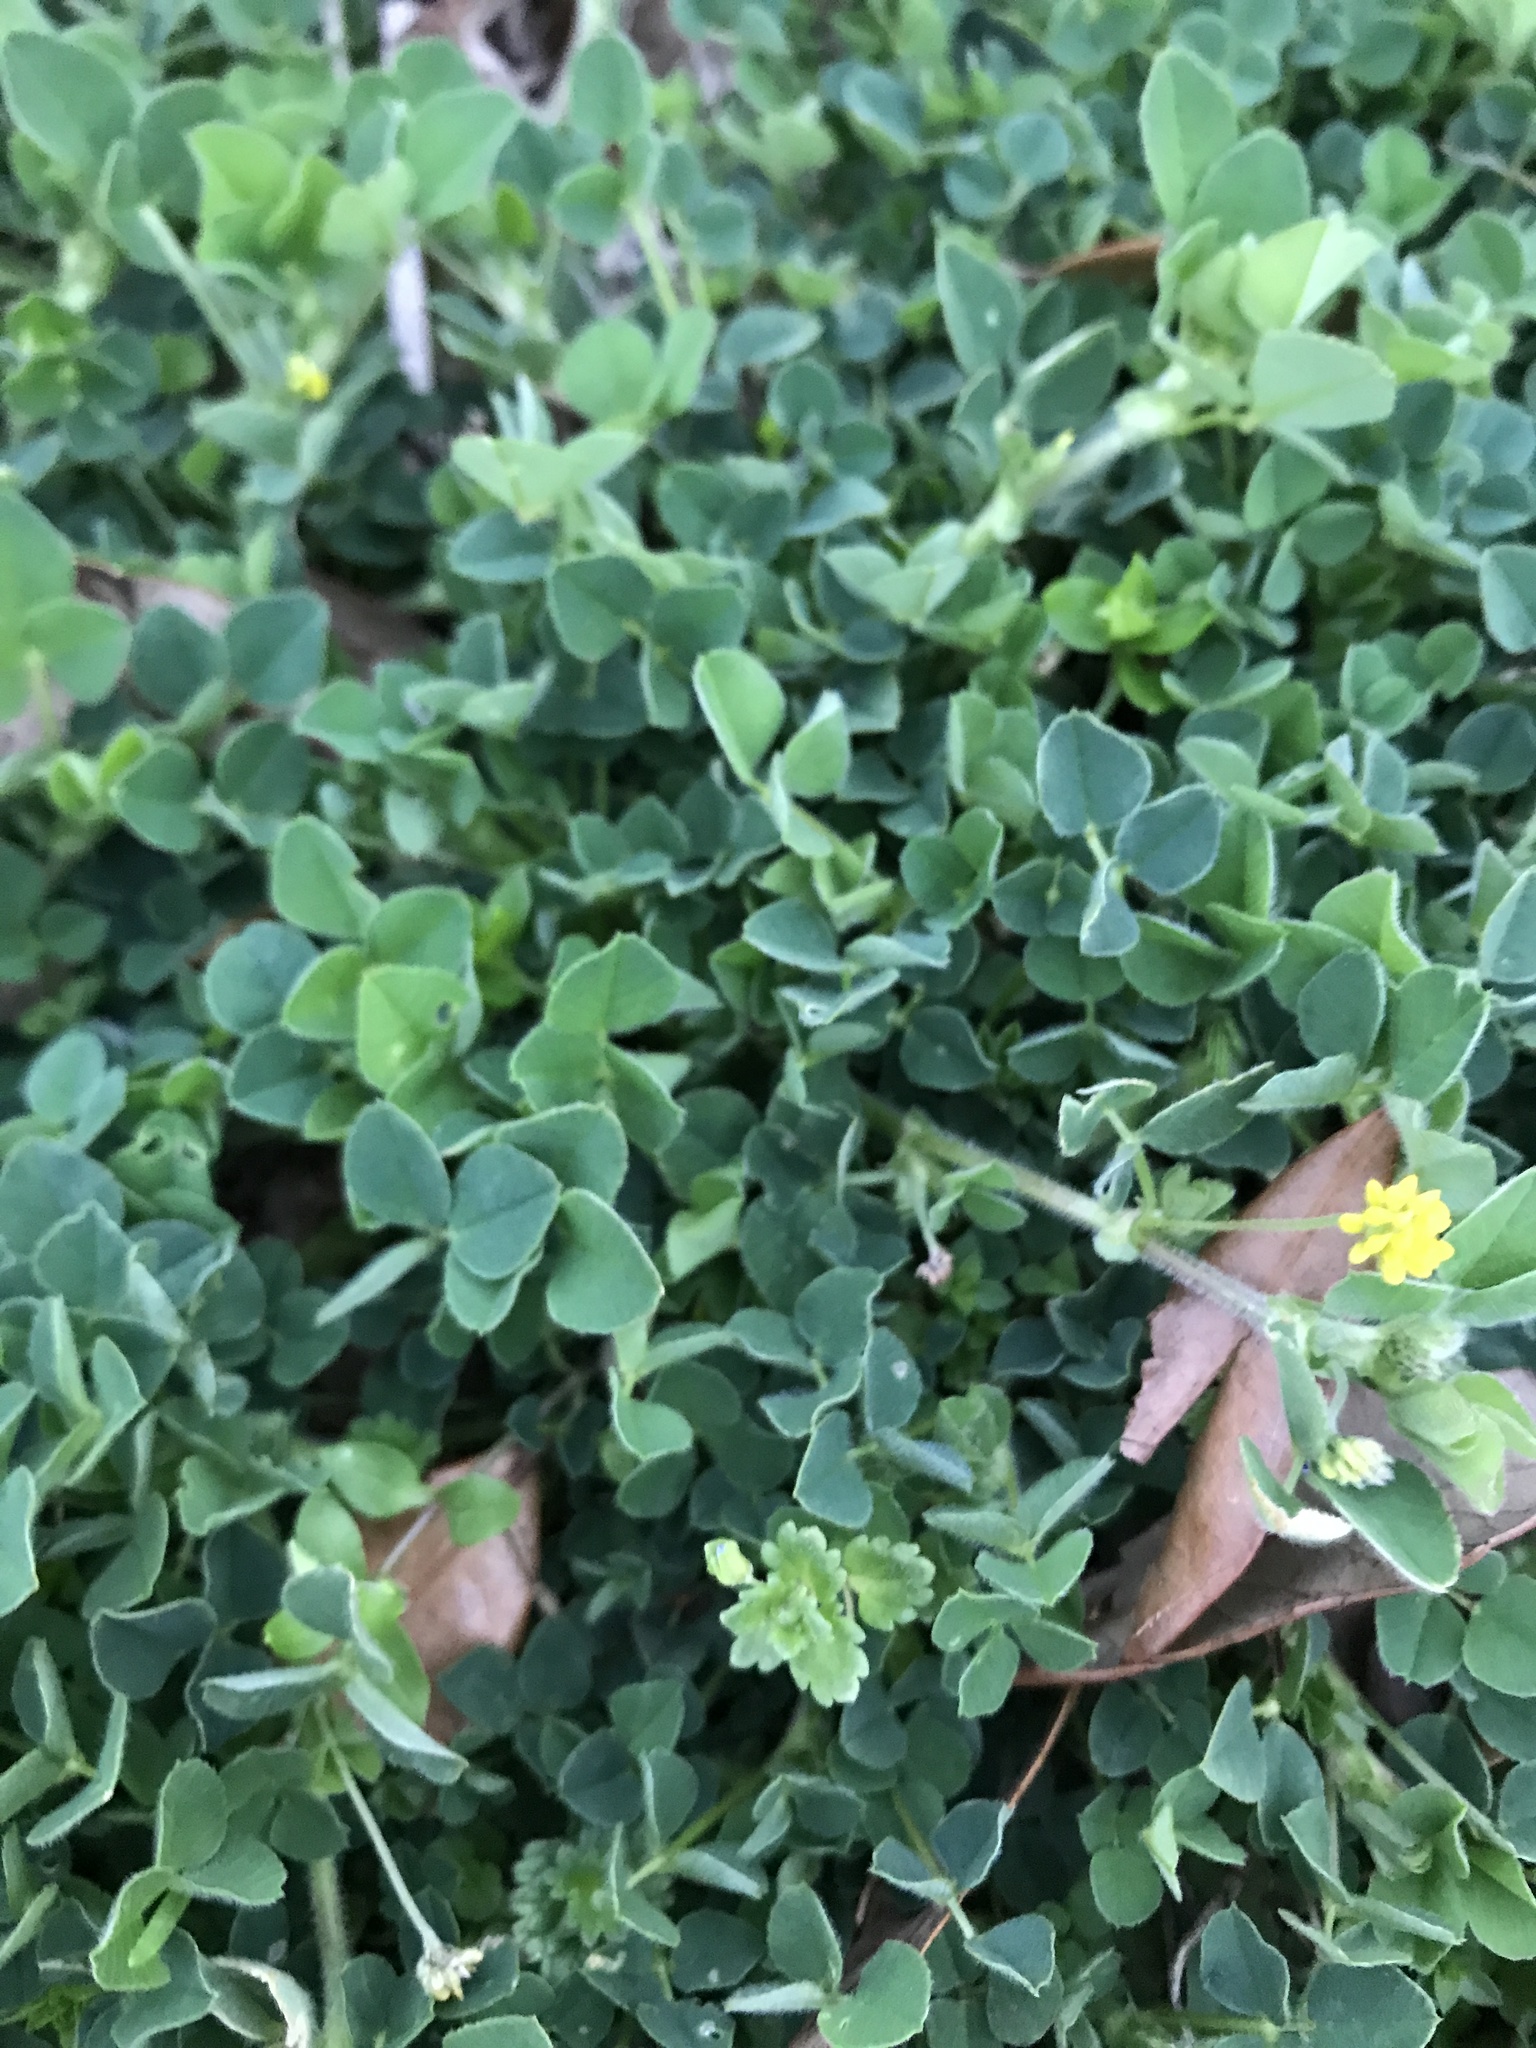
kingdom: Plantae
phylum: Tracheophyta
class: Magnoliopsida
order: Fabales
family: Fabaceae
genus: Medicago
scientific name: Medicago lupulina
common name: Black medick
